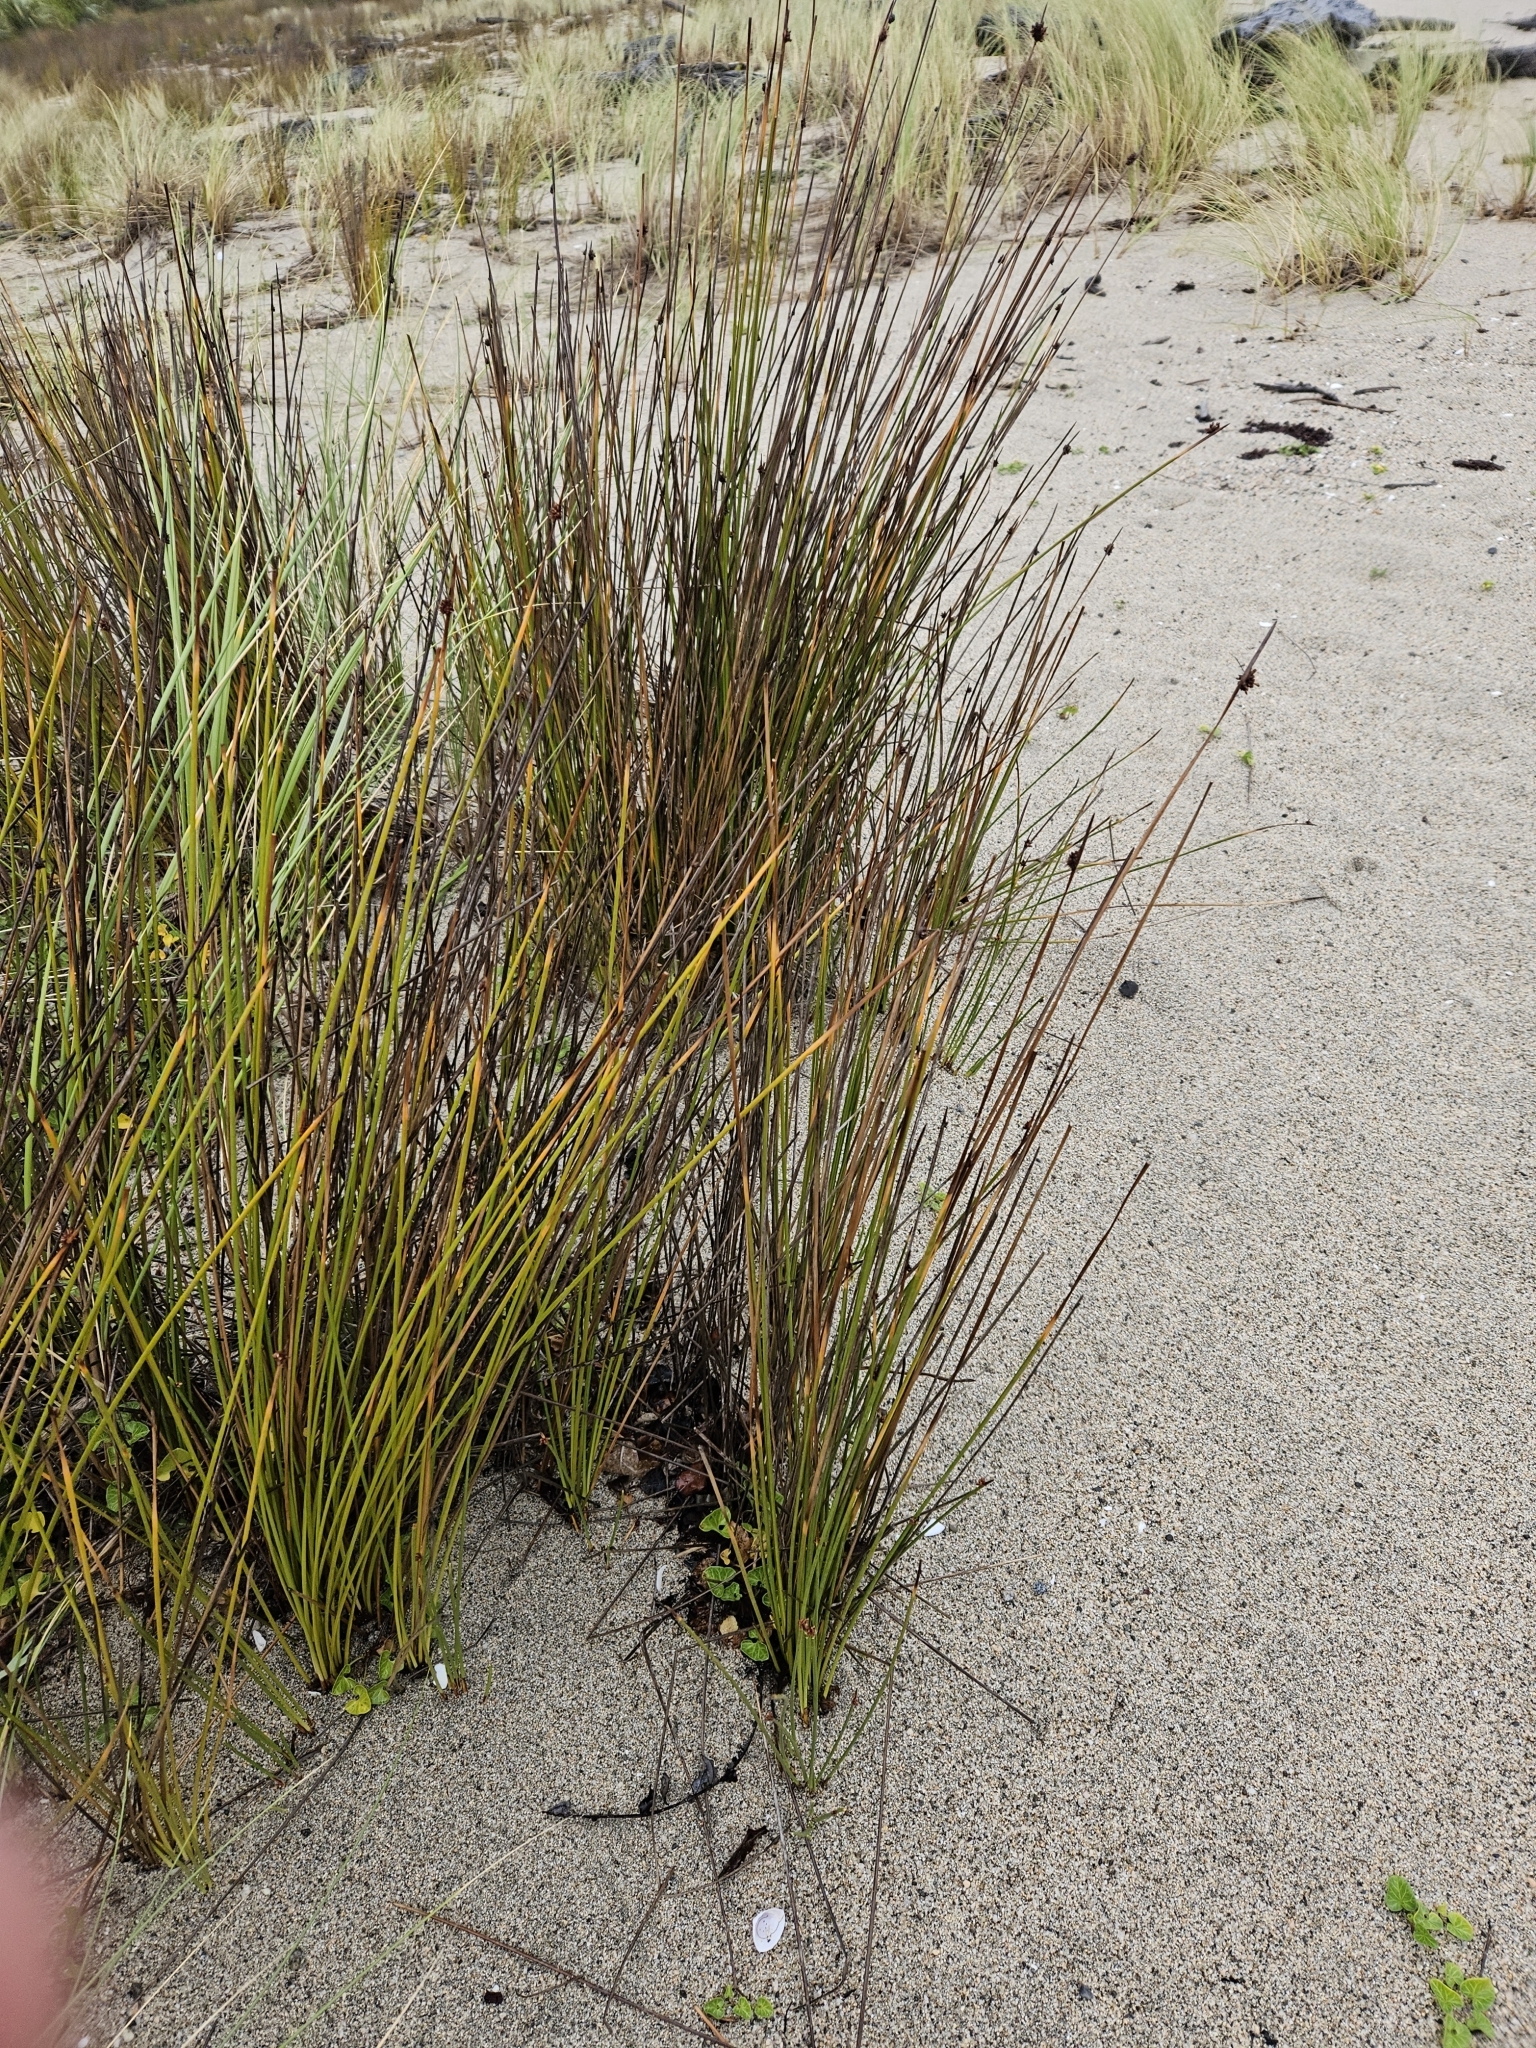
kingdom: Plantae
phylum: Tracheophyta
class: Liliopsida
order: Poales
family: Cyperaceae
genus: Ficinia
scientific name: Ficinia nodosa
